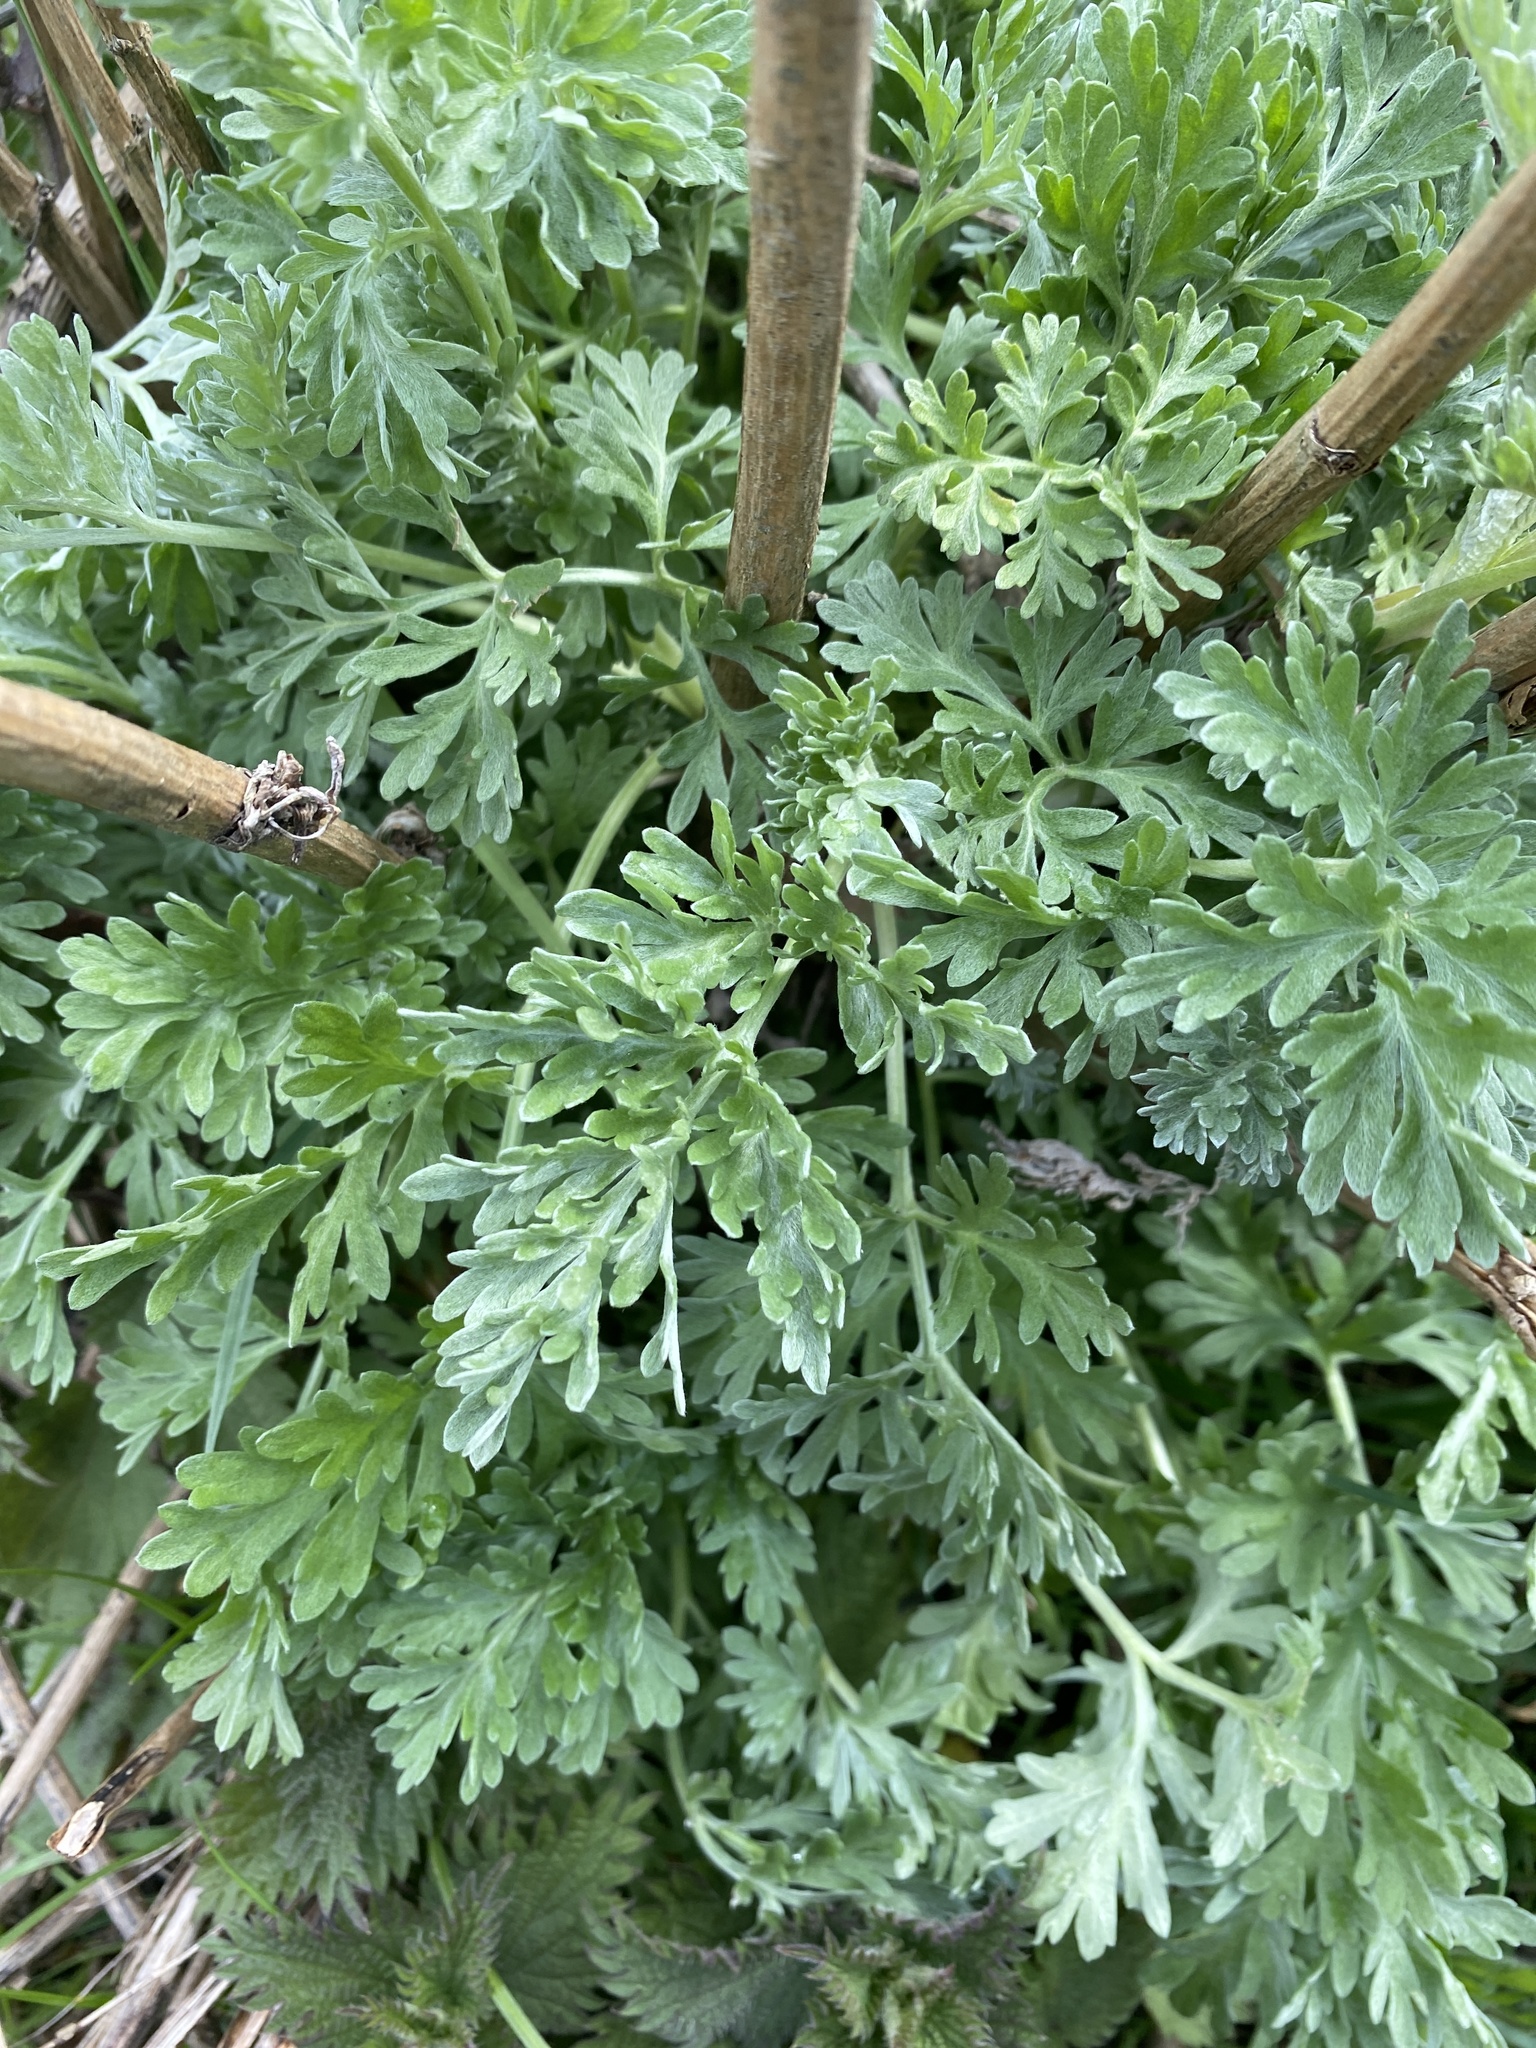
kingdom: Plantae
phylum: Tracheophyta
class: Magnoliopsida
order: Asterales
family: Asteraceae
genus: Artemisia
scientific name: Artemisia vulgaris
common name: Mugwort
